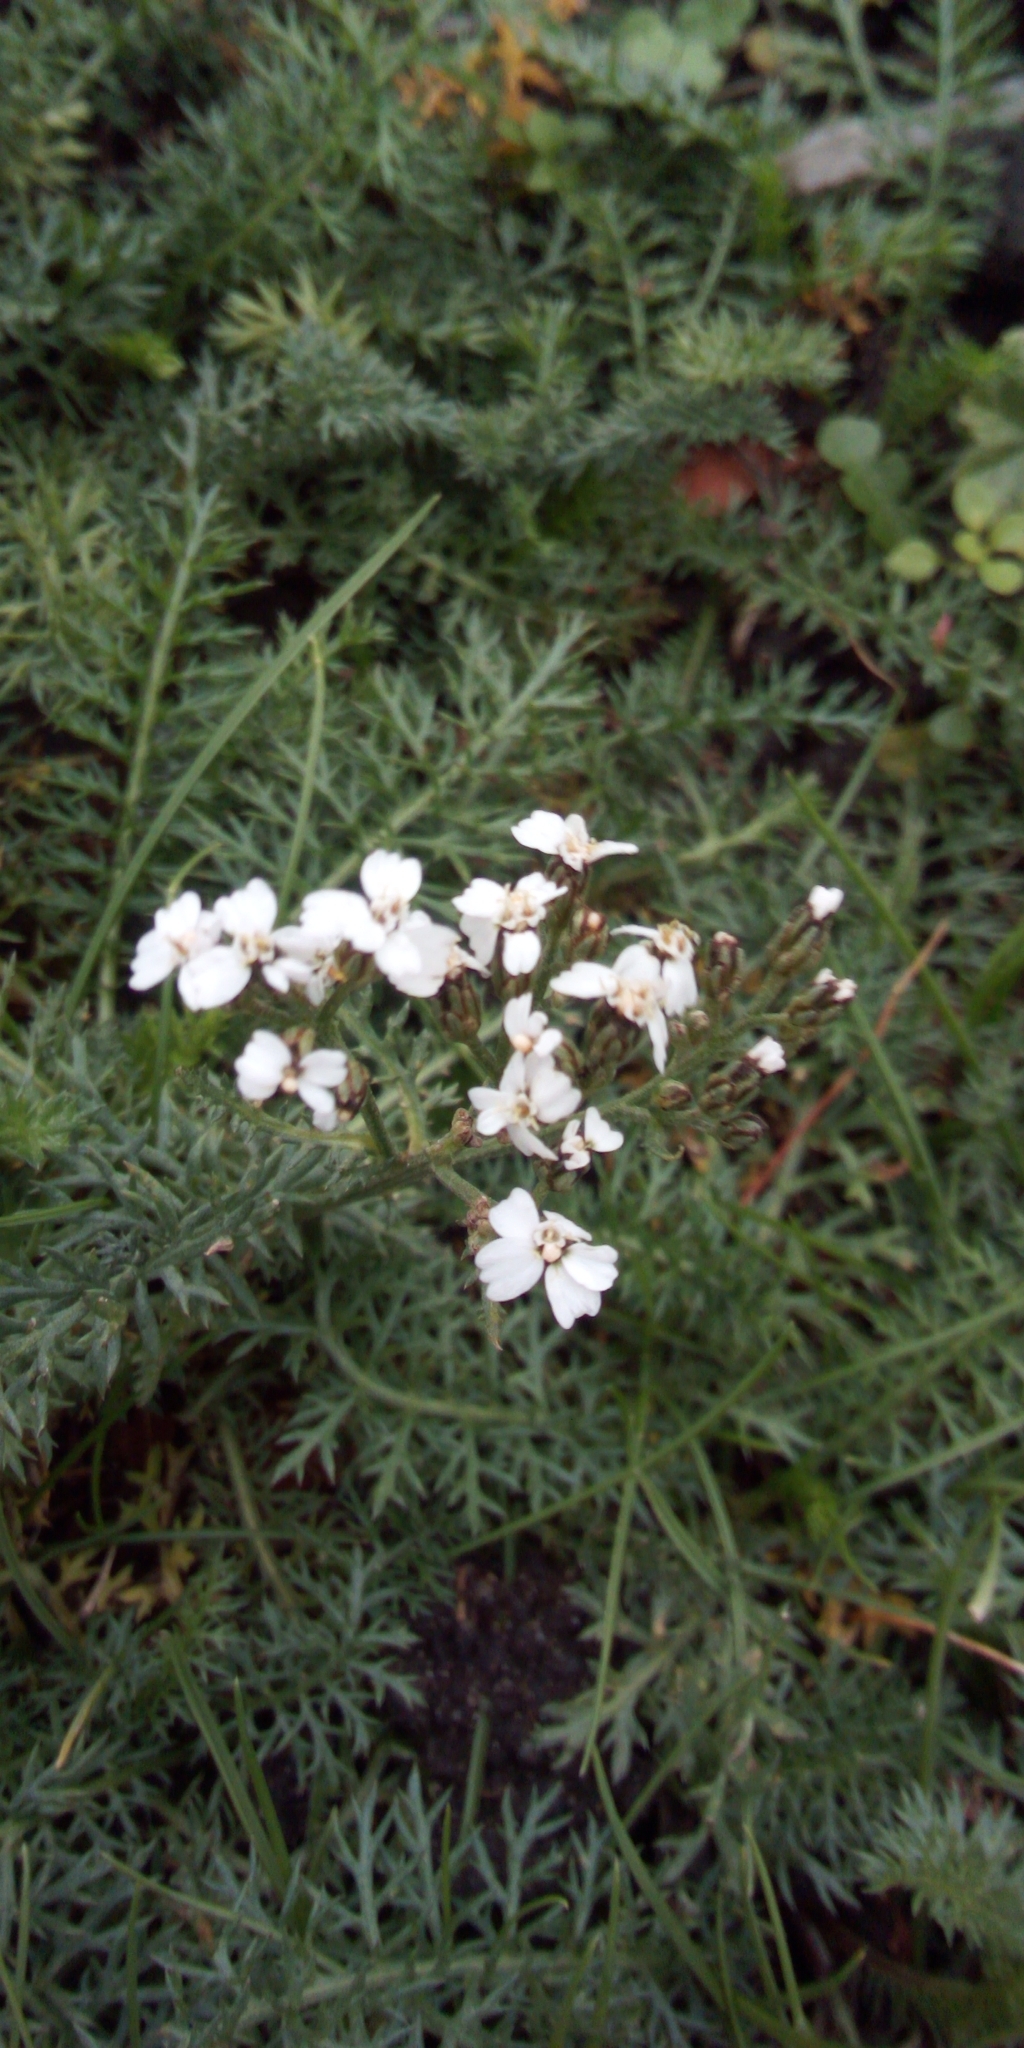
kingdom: Plantae
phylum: Tracheophyta
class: Magnoliopsida
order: Asterales
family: Asteraceae
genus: Achillea
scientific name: Achillea millefolium
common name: Yarrow
